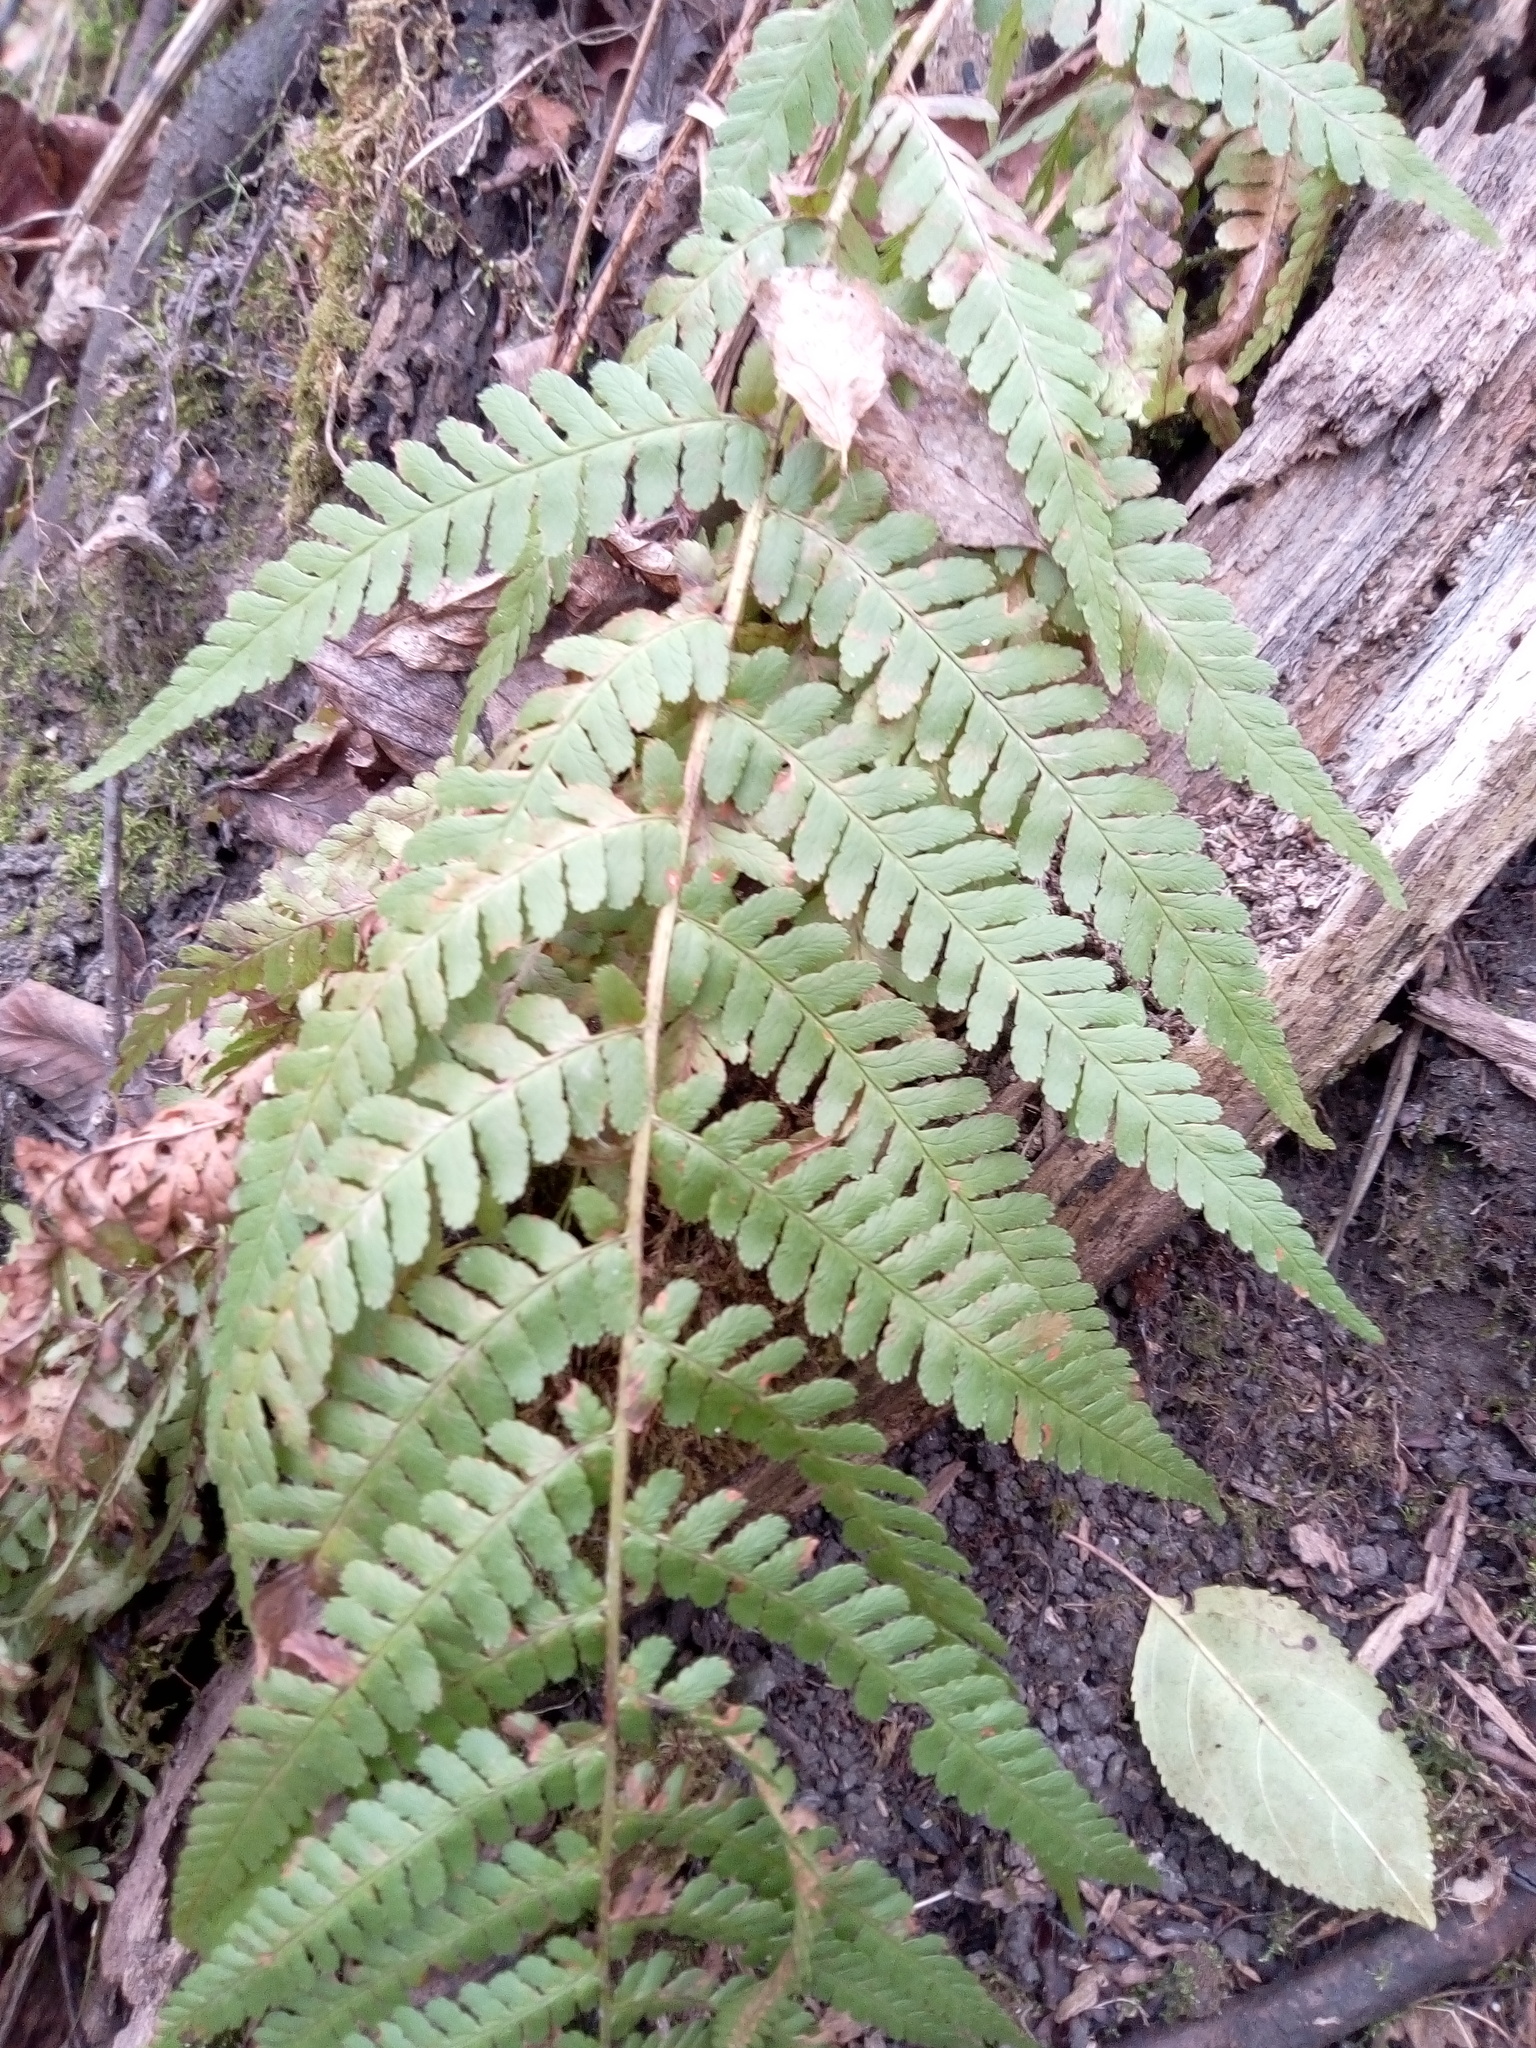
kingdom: Plantae
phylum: Tracheophyta
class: Polypodiopsida
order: Polypodiales
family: Dryopteridaceae
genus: Dryopteris
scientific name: Dryopteris filix-mas
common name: Male fern
